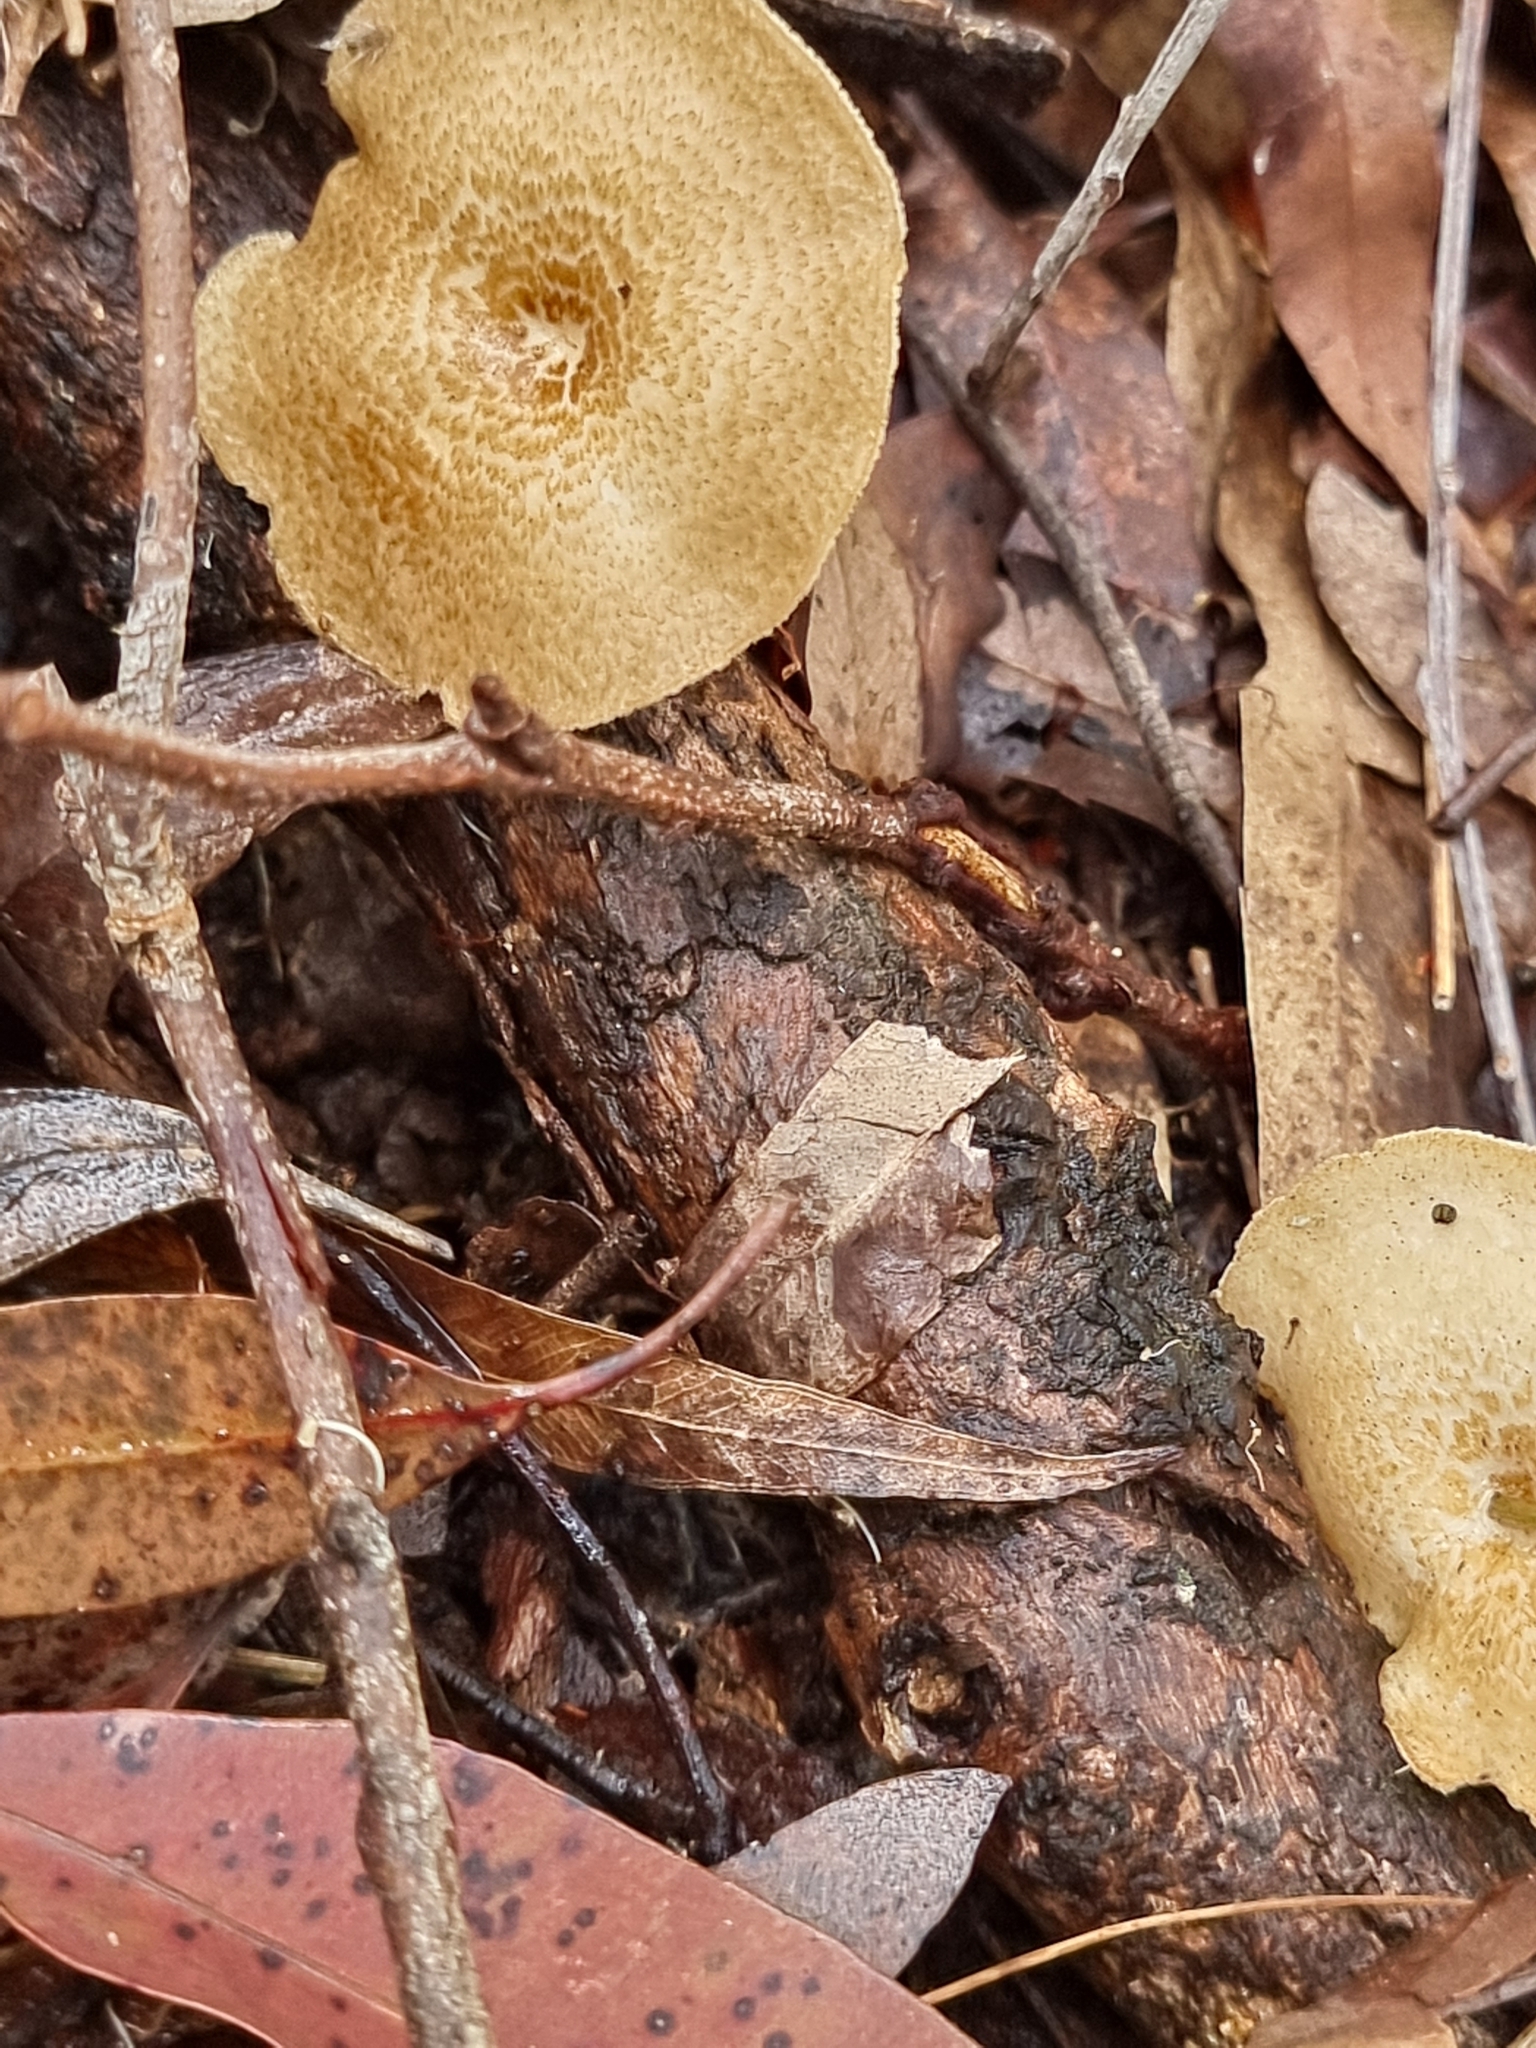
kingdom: Fungi
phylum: Basidiomycota
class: Agaricomycetes
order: Polyporales
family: Polyporaceae
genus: Lentinus
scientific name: Lentinus arcularius
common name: Spring polypore
